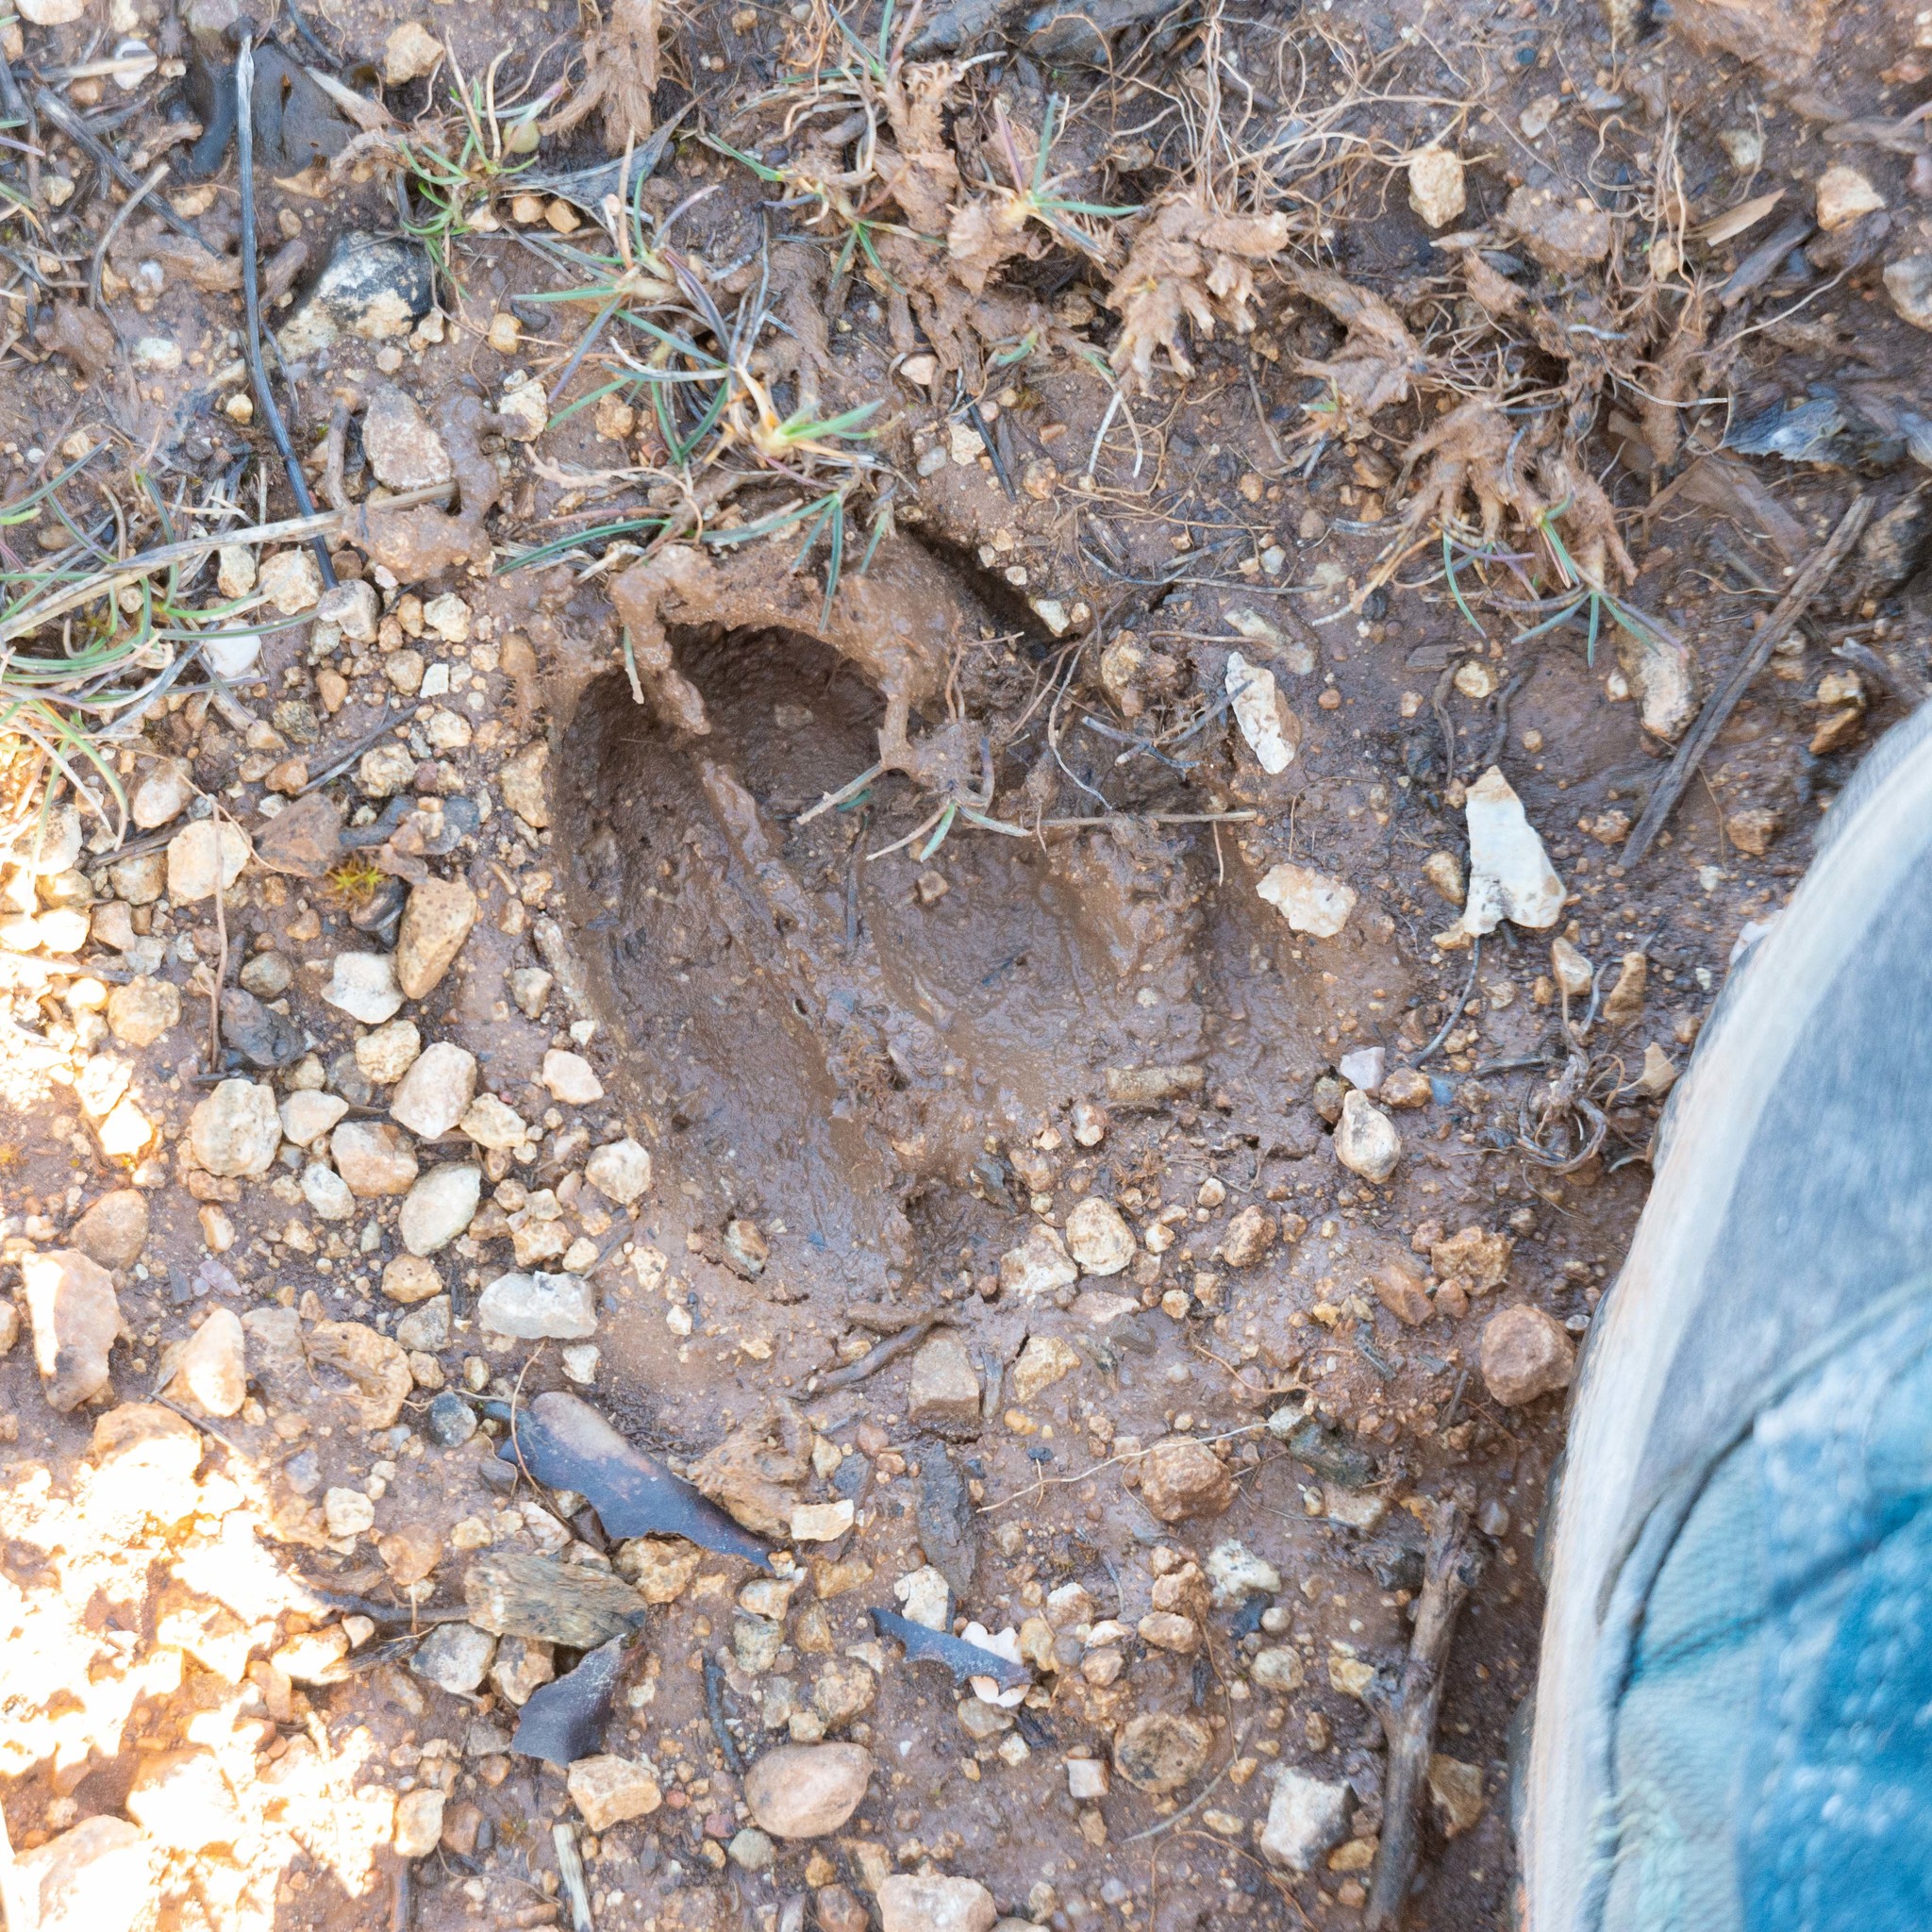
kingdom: Animalia
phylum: Chordata
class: Mammalia
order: Artiodactyla
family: Cervidae
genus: Capreolus
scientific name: Capreolus capreolus
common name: Western roe deer
